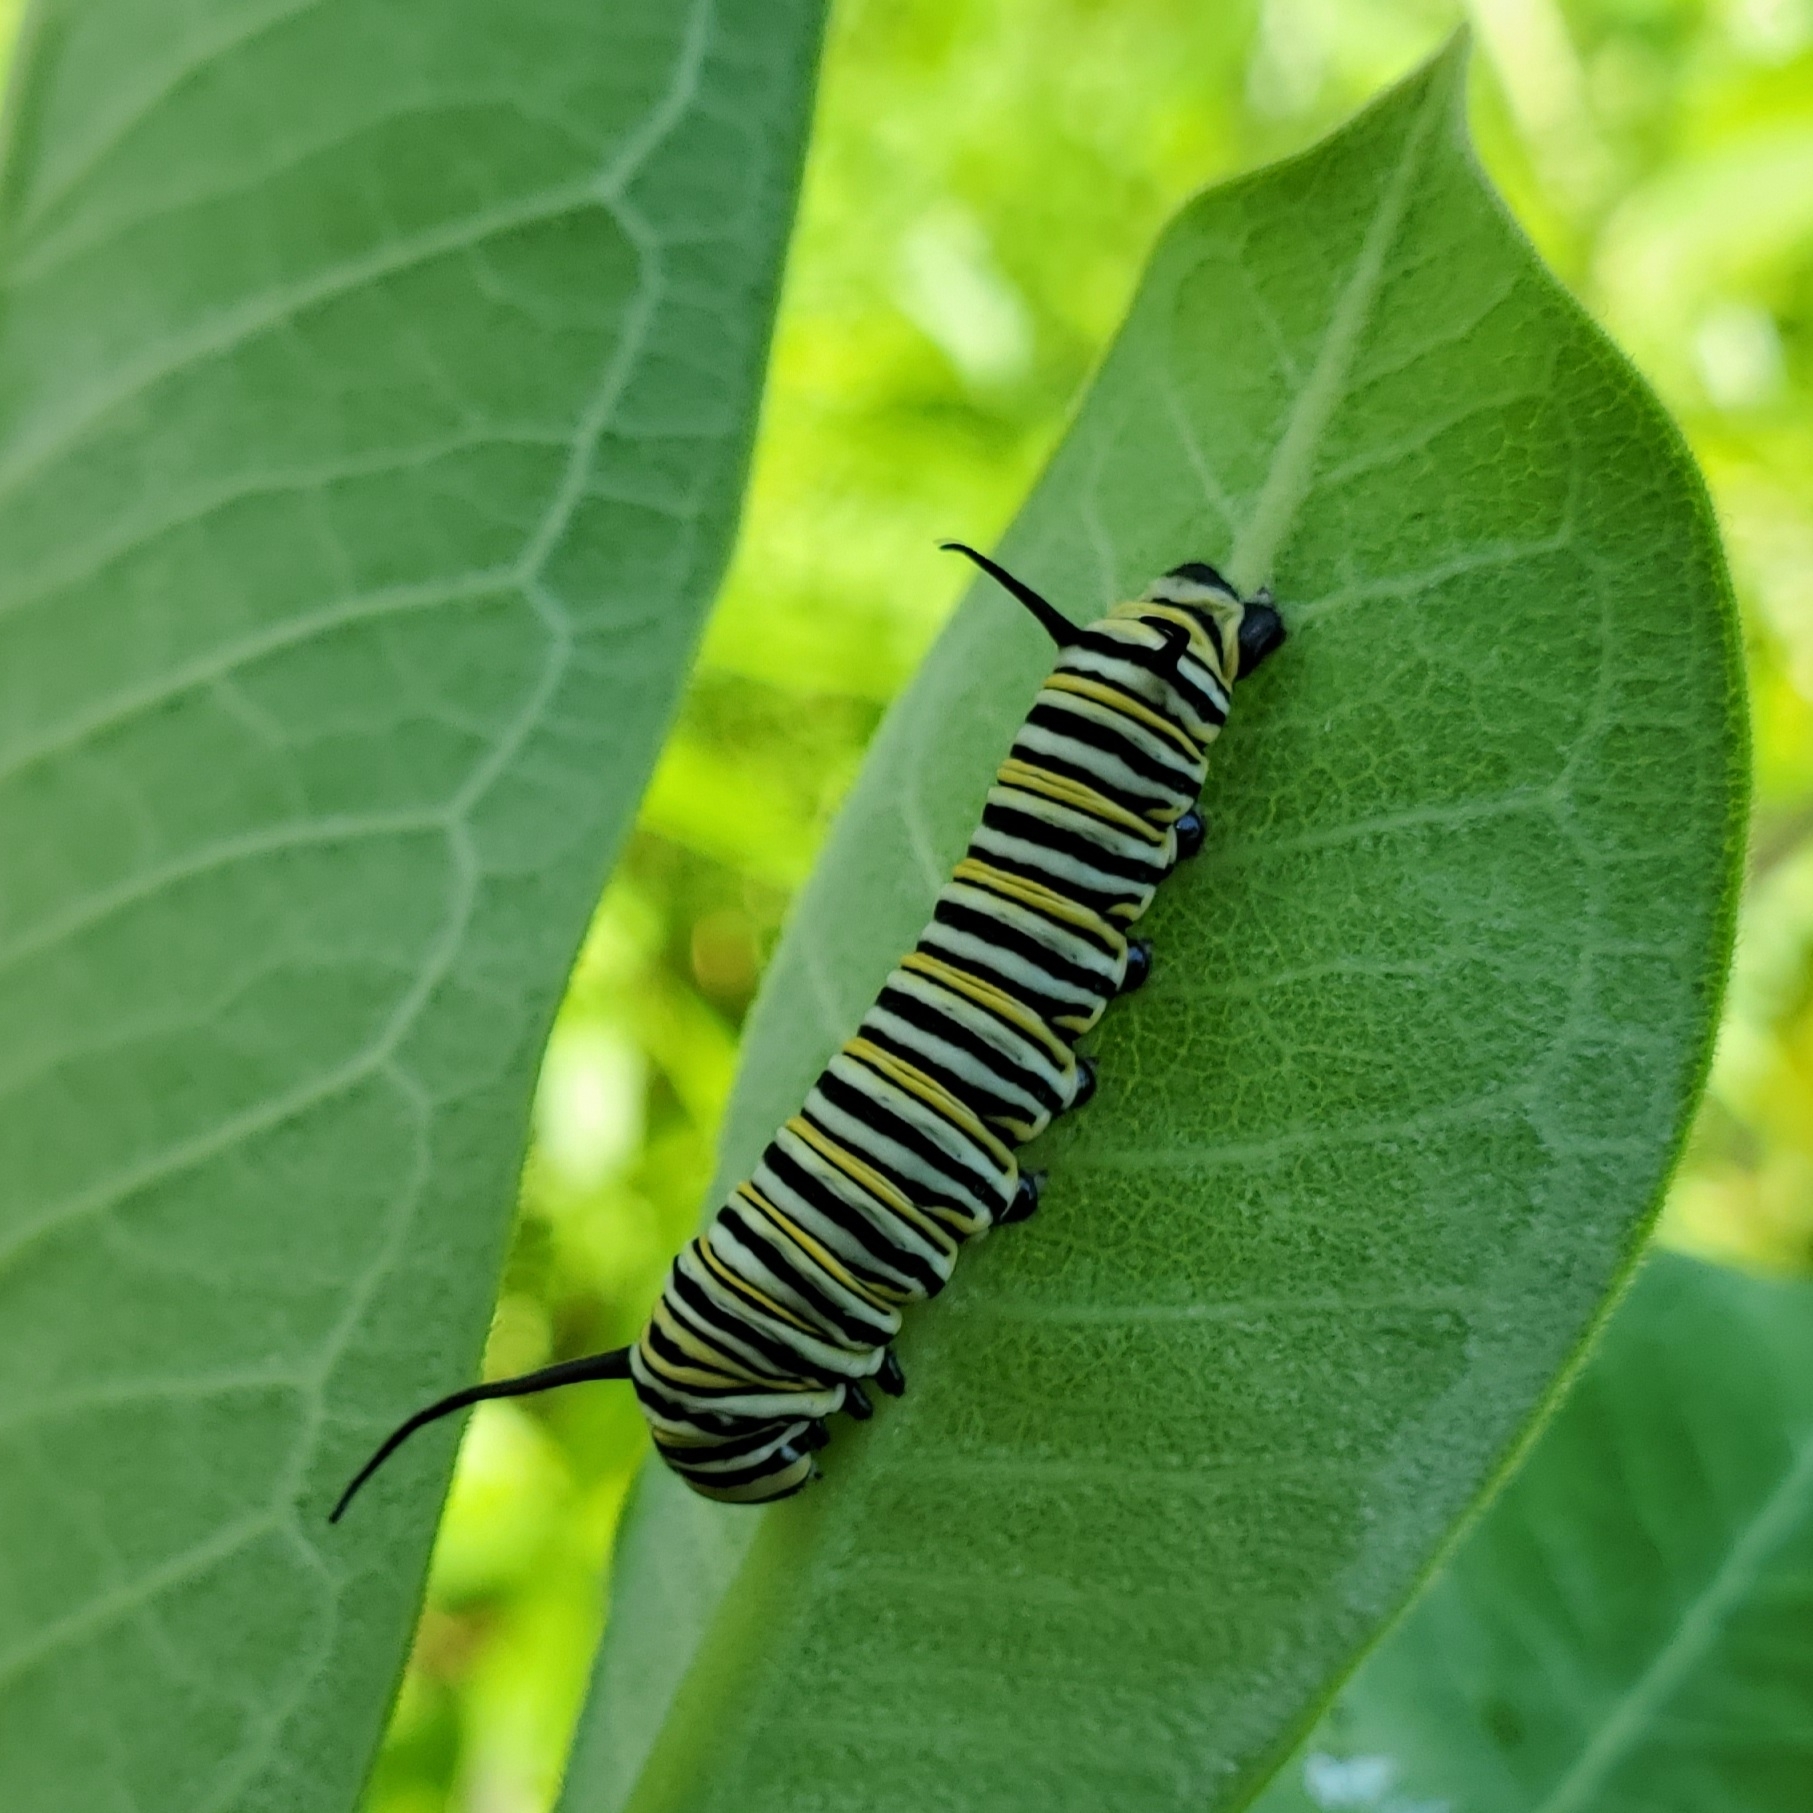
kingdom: Animalia
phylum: Arthropoda
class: Insecta
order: Lepidoptera
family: Nymphalidae
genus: Danaus
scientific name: Danaus plexippus
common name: Monarch
